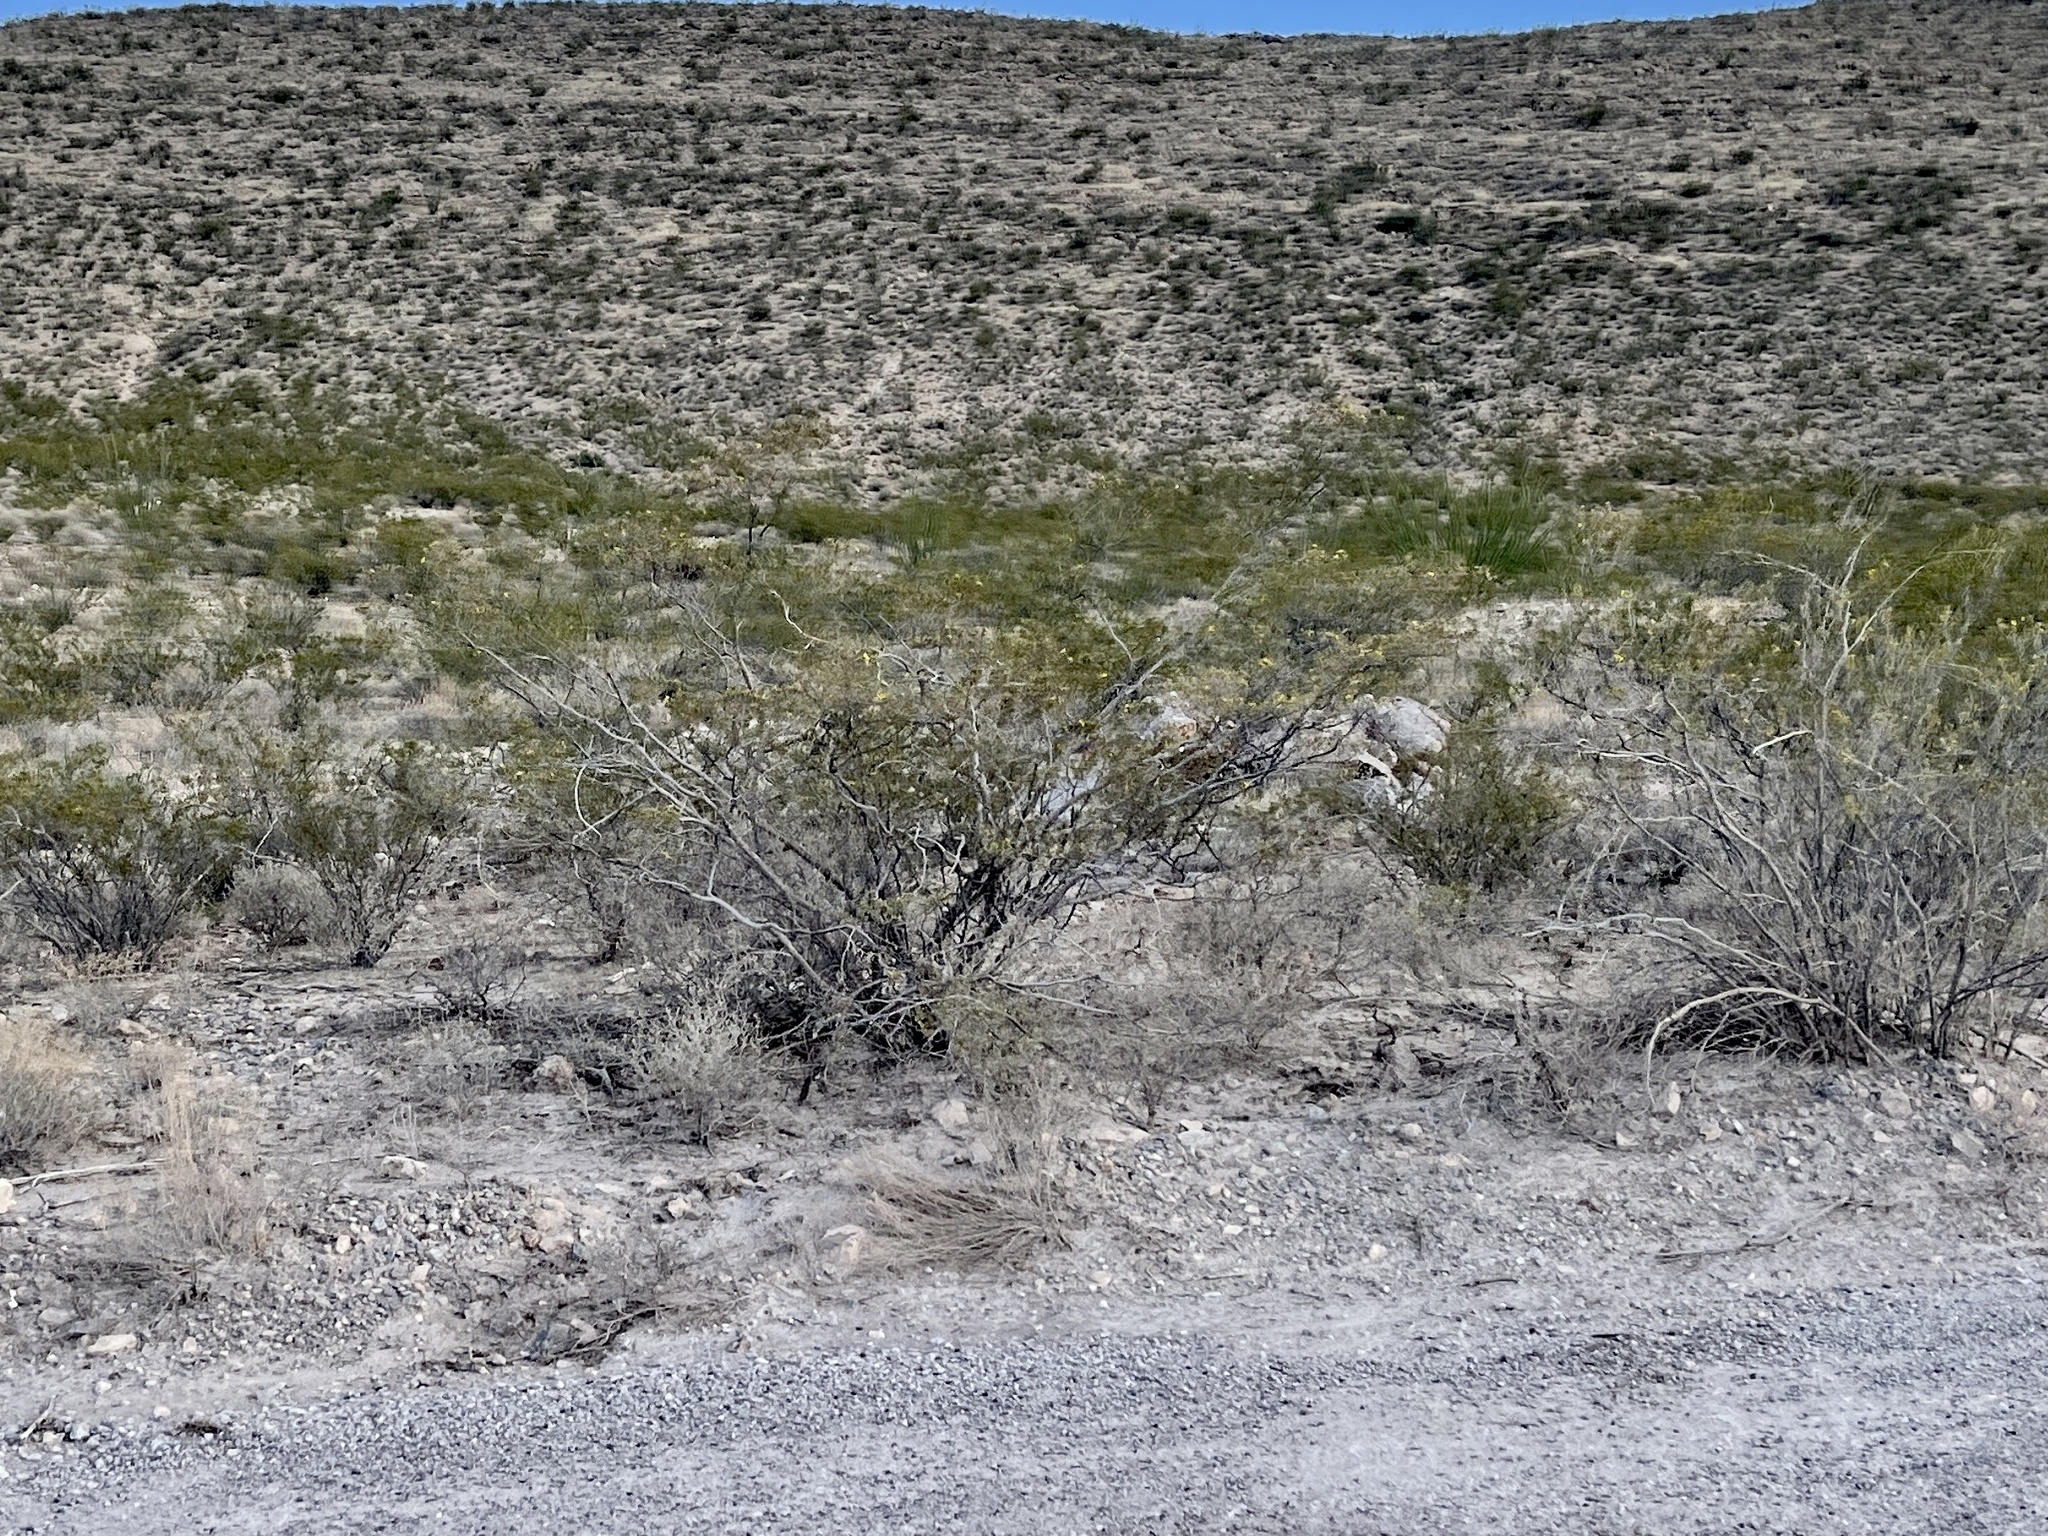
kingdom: Plantae
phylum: Tracheophyta
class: Magnoliopsida
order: Zygophyllales
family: Zygophyllaceae
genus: Larrea
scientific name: Larrea tridentata
